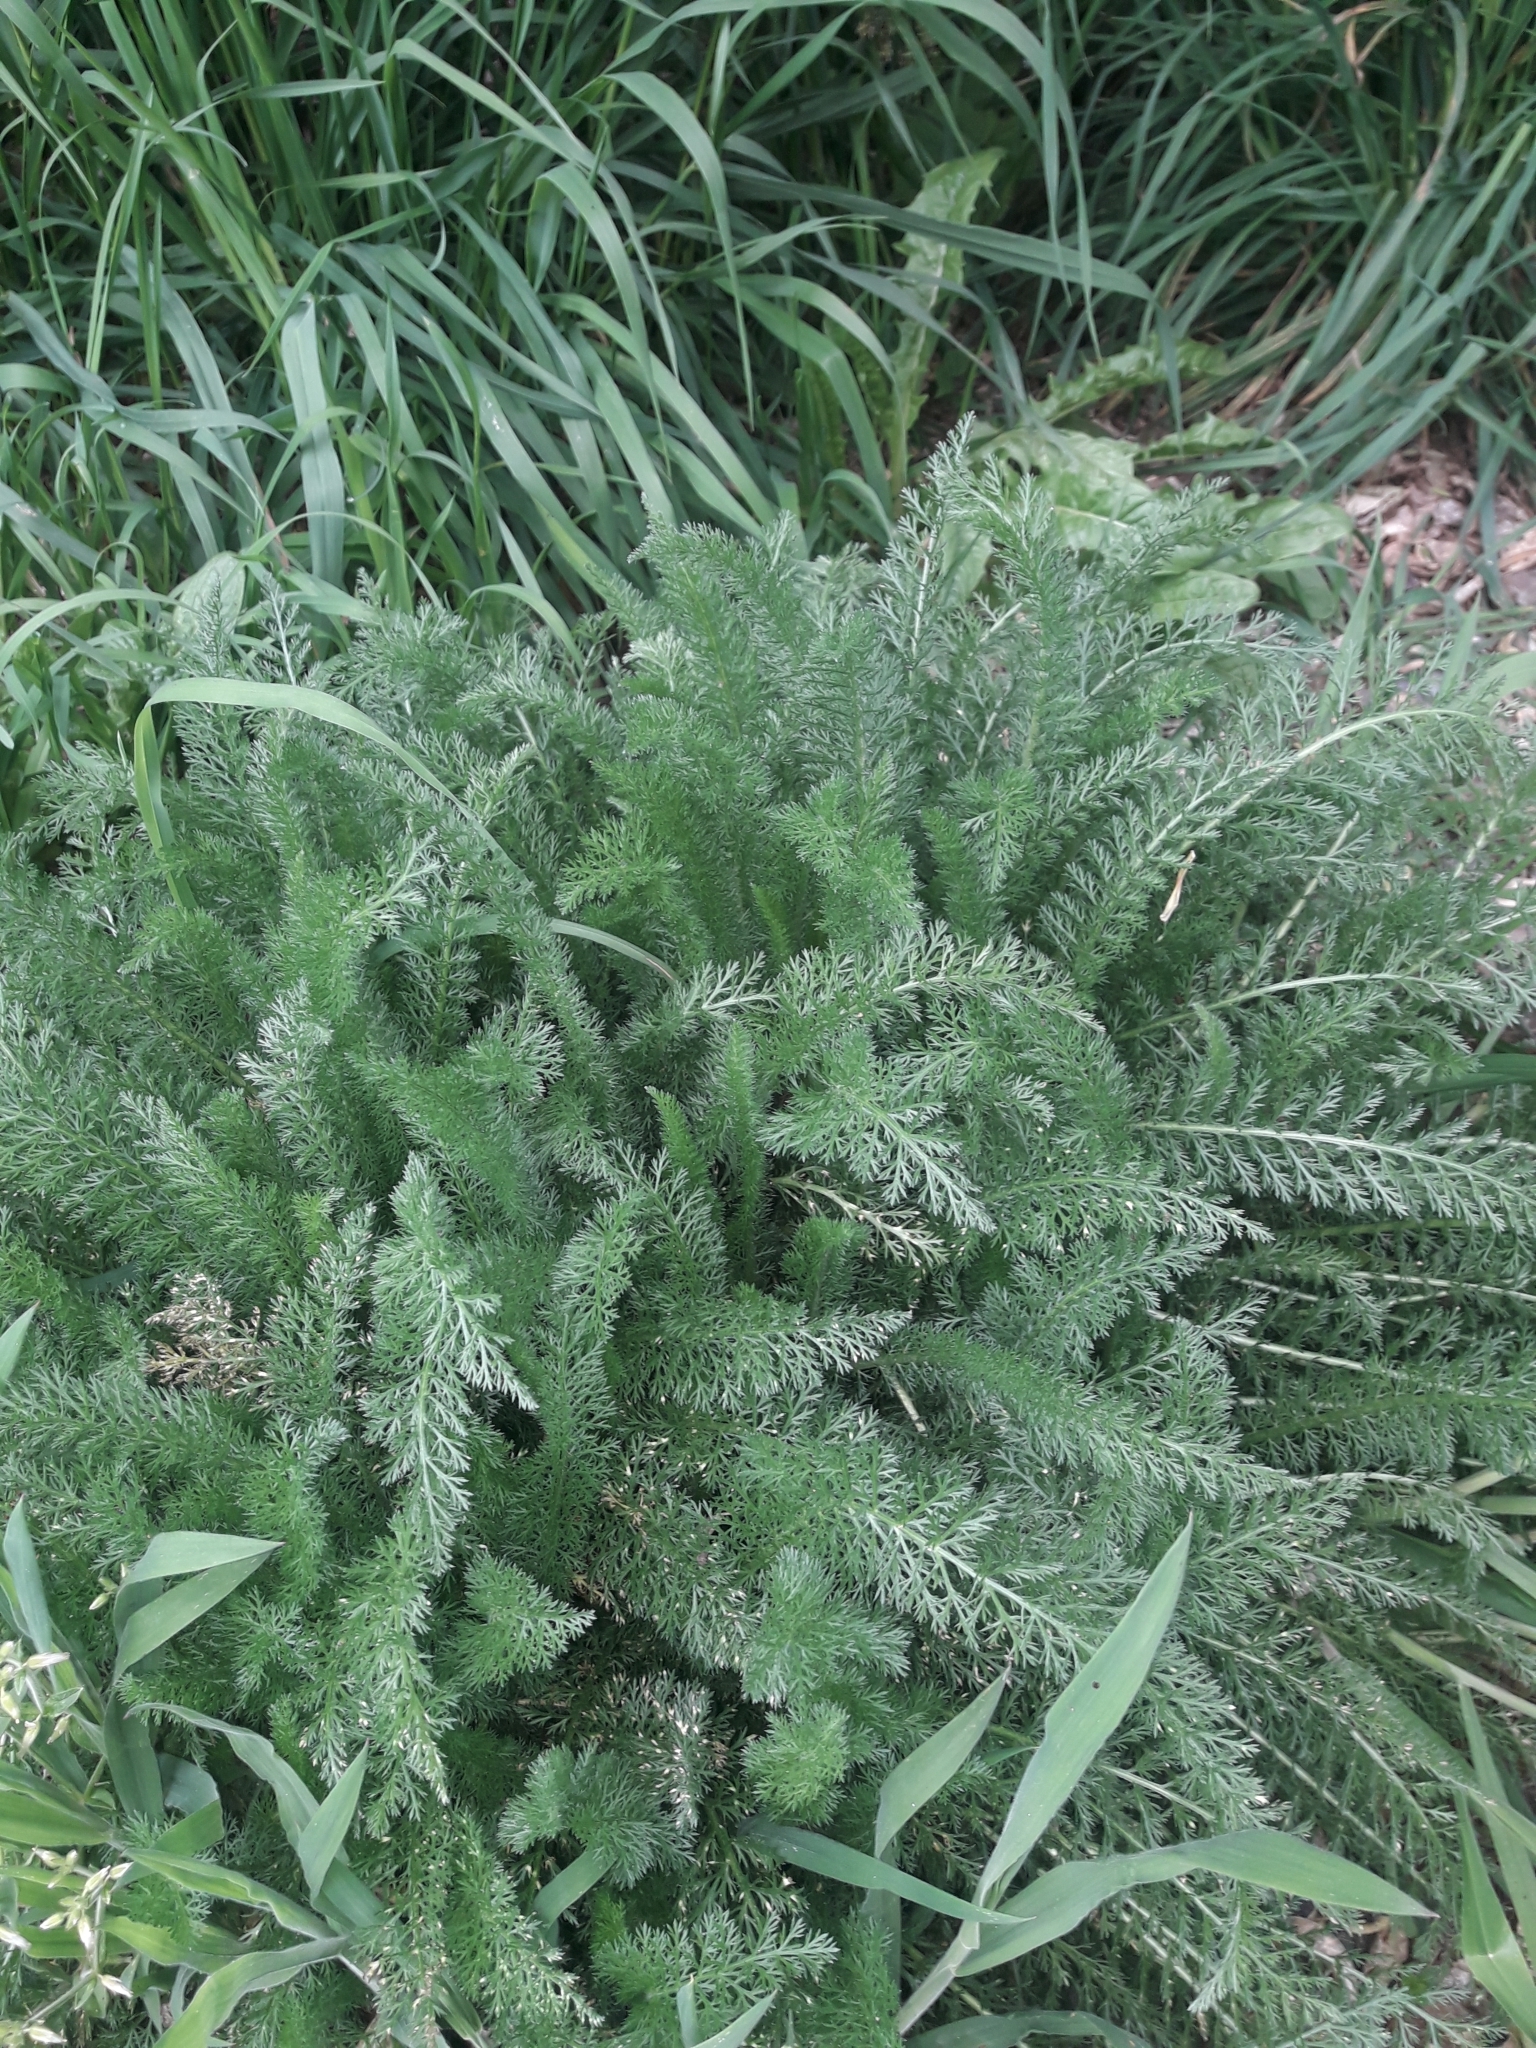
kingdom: Plantae
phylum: Tracheophyta
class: Magnoliopsida
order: Asterales
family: Asteraceae
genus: Achillea
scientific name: Achillea millefolium
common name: Yarrow
